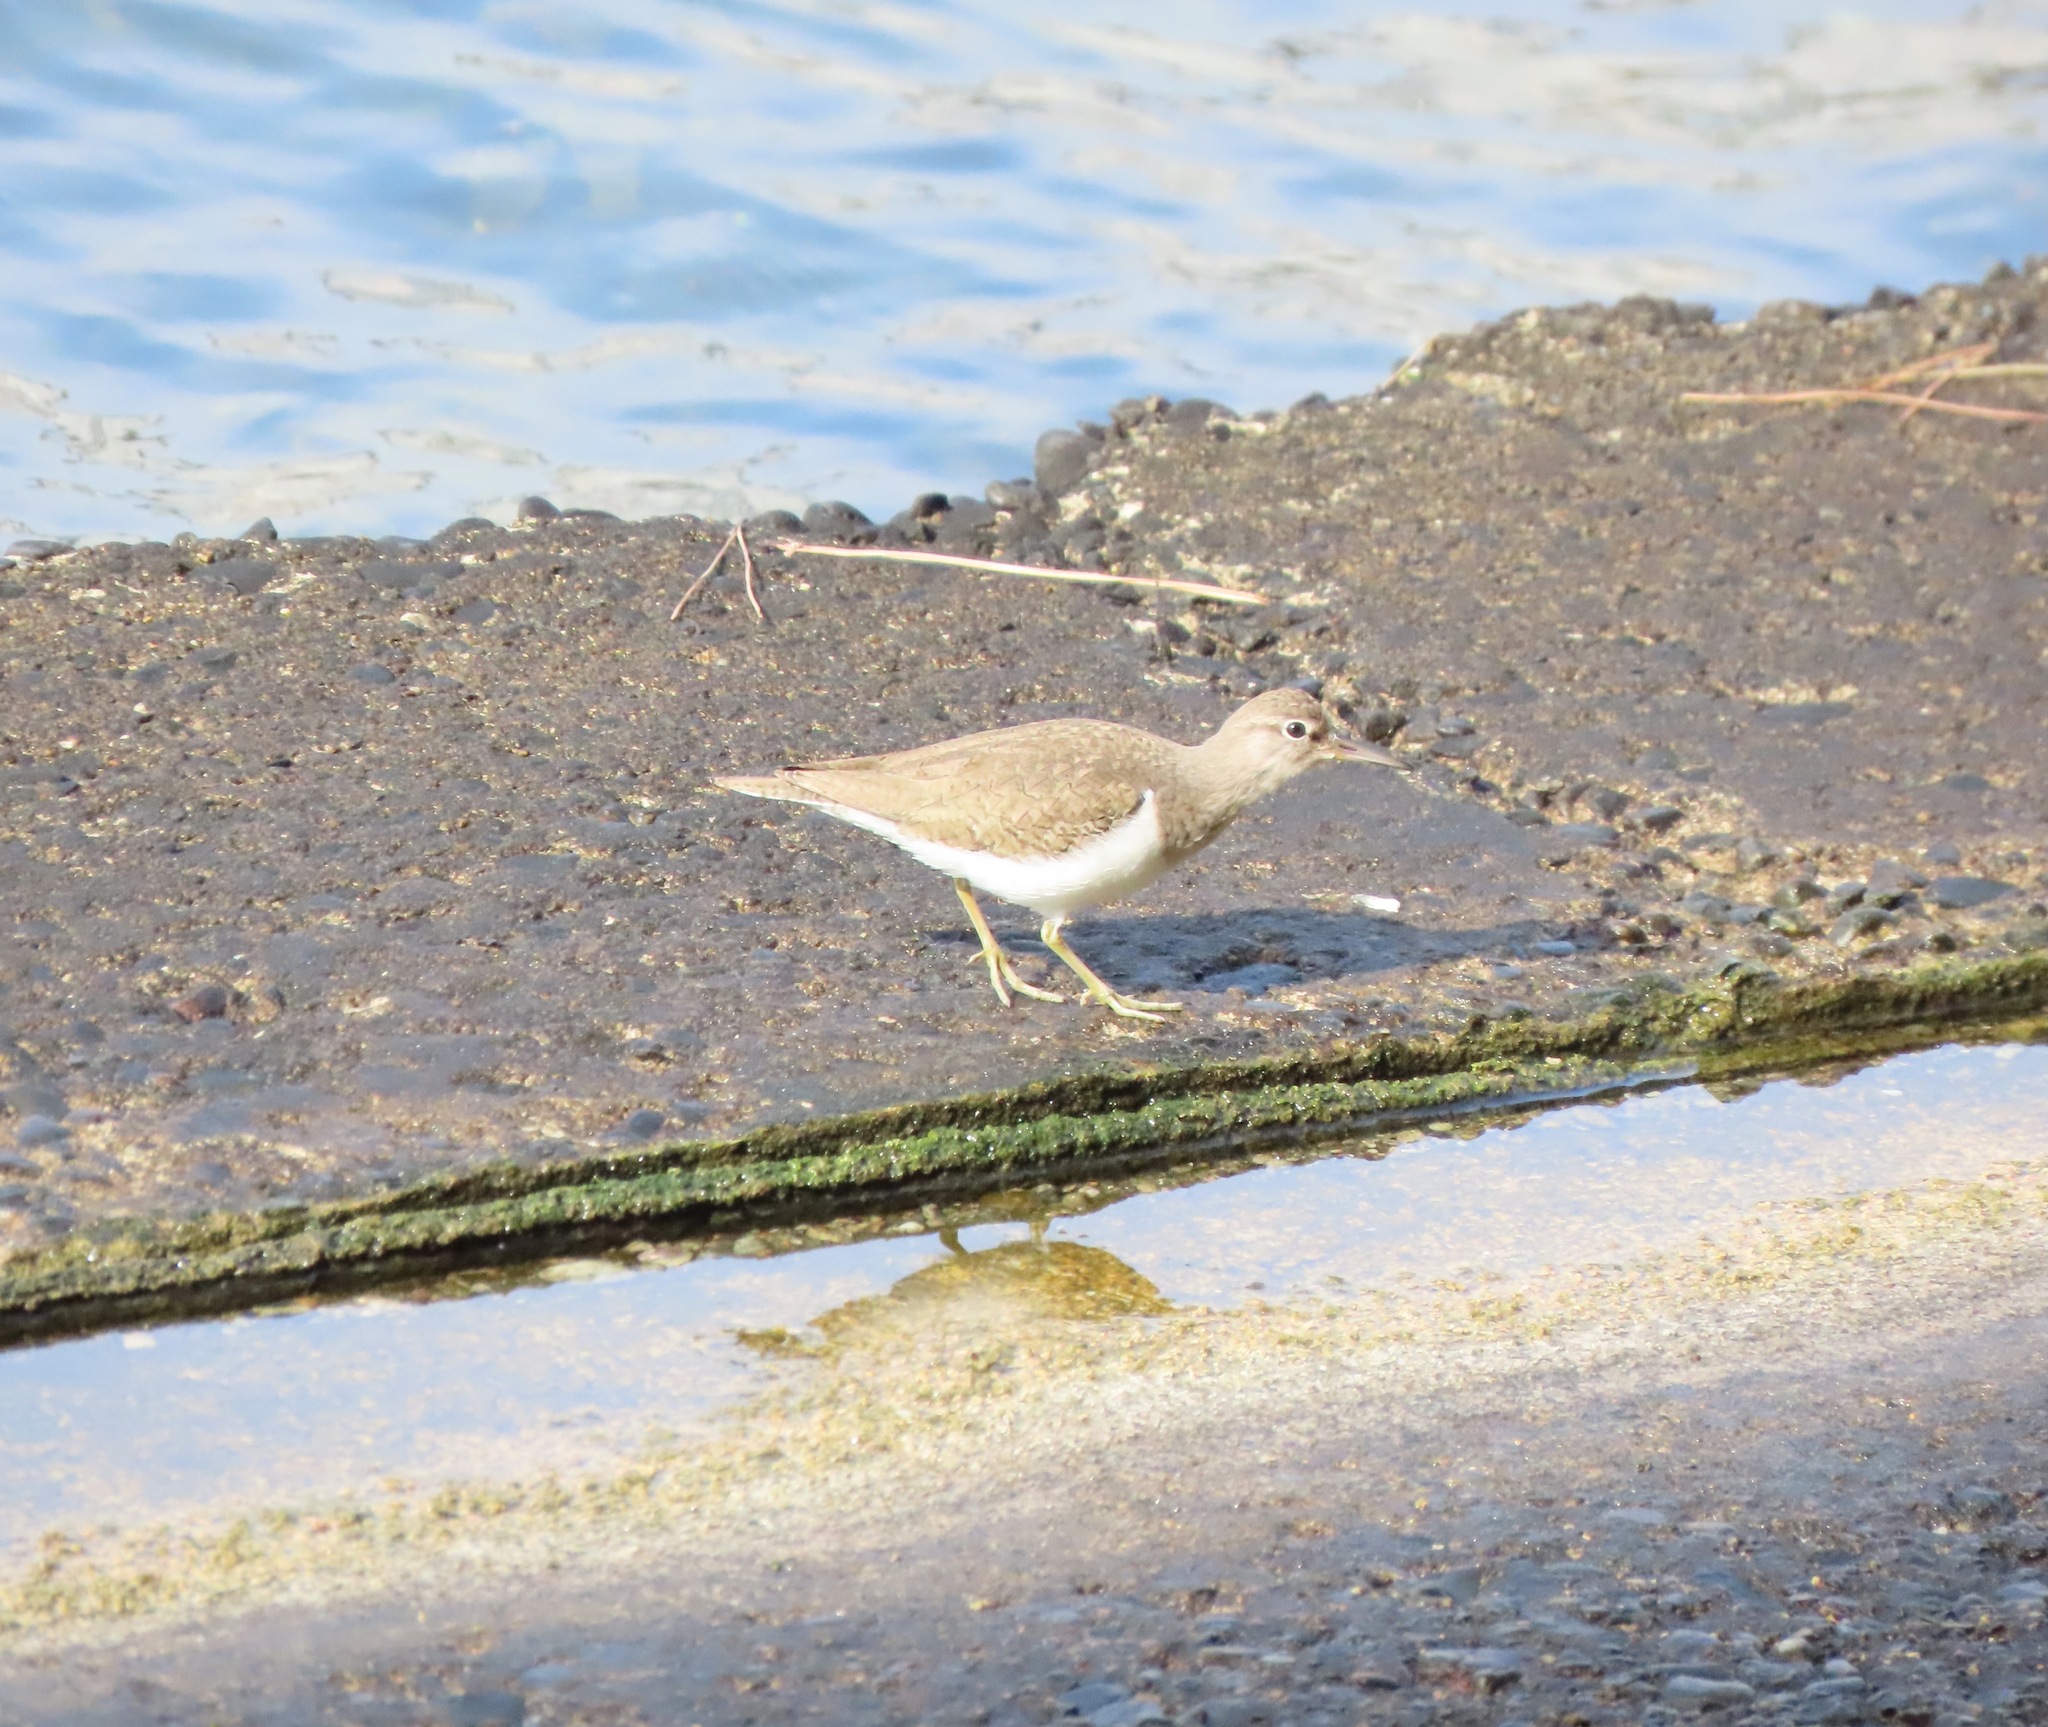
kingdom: Animalia
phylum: Chordata
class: Aves
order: Charadriiformes
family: Scolopacidae
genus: Actitis
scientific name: Actitis hypoleucos
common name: Common sandpiper
